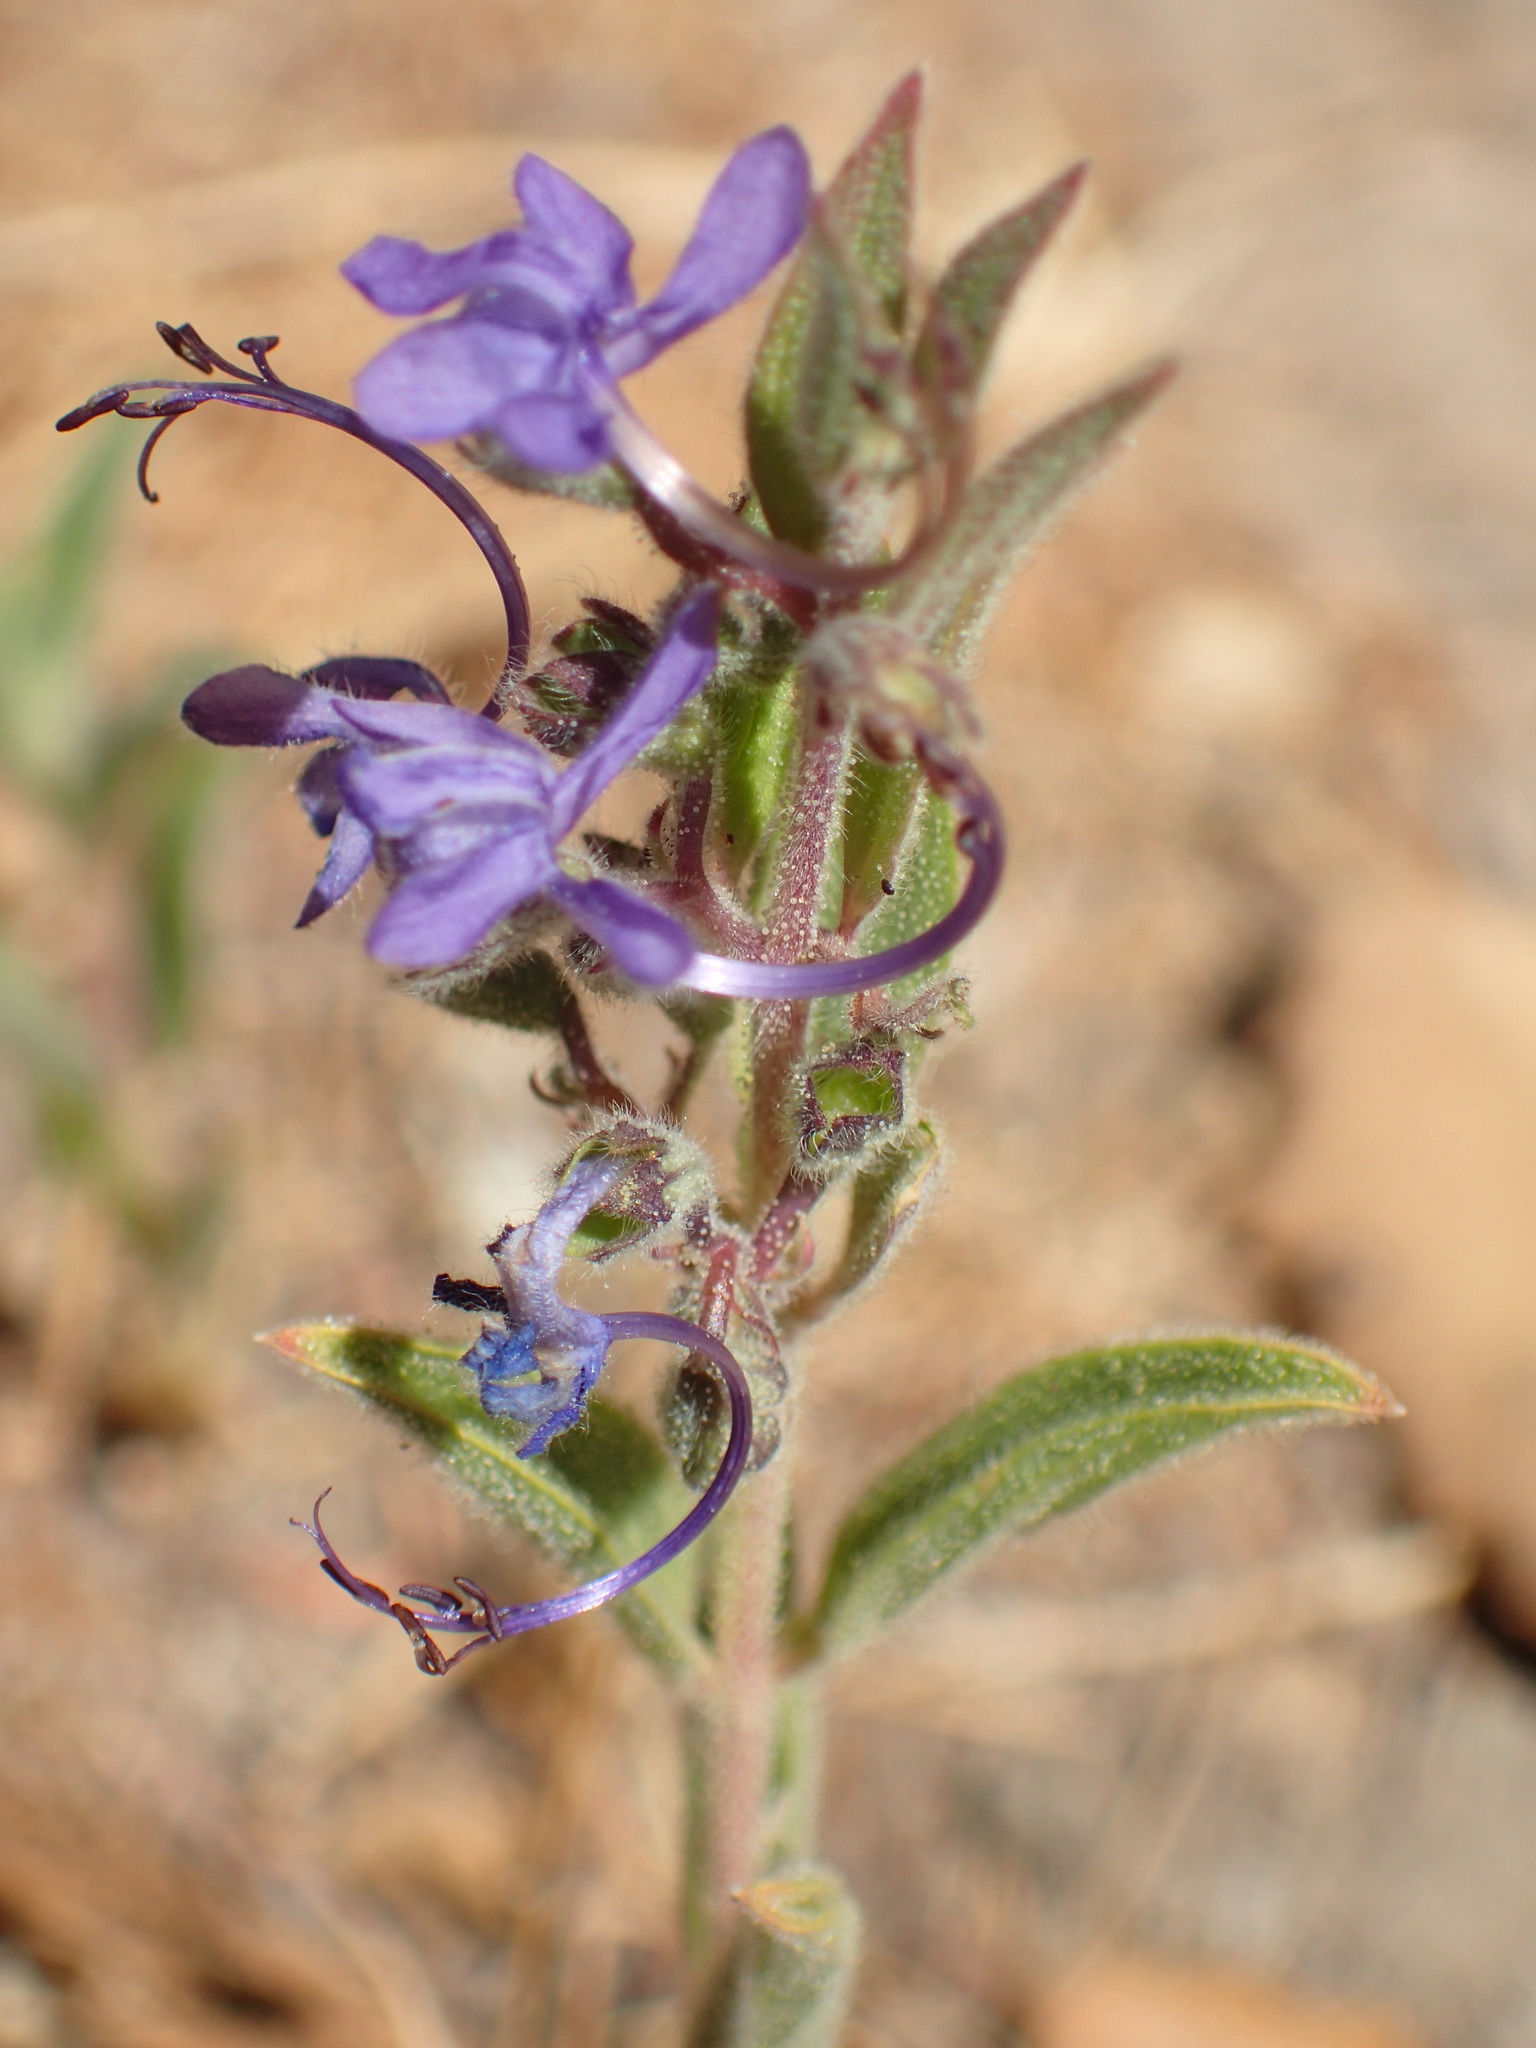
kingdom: Plantae
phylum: Tracheophyta
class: Magnoliopsida
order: Lamiales
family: Lamiaceae
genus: Trichostema
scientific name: Trichostema lanceolatum
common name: Vinegar-weed
